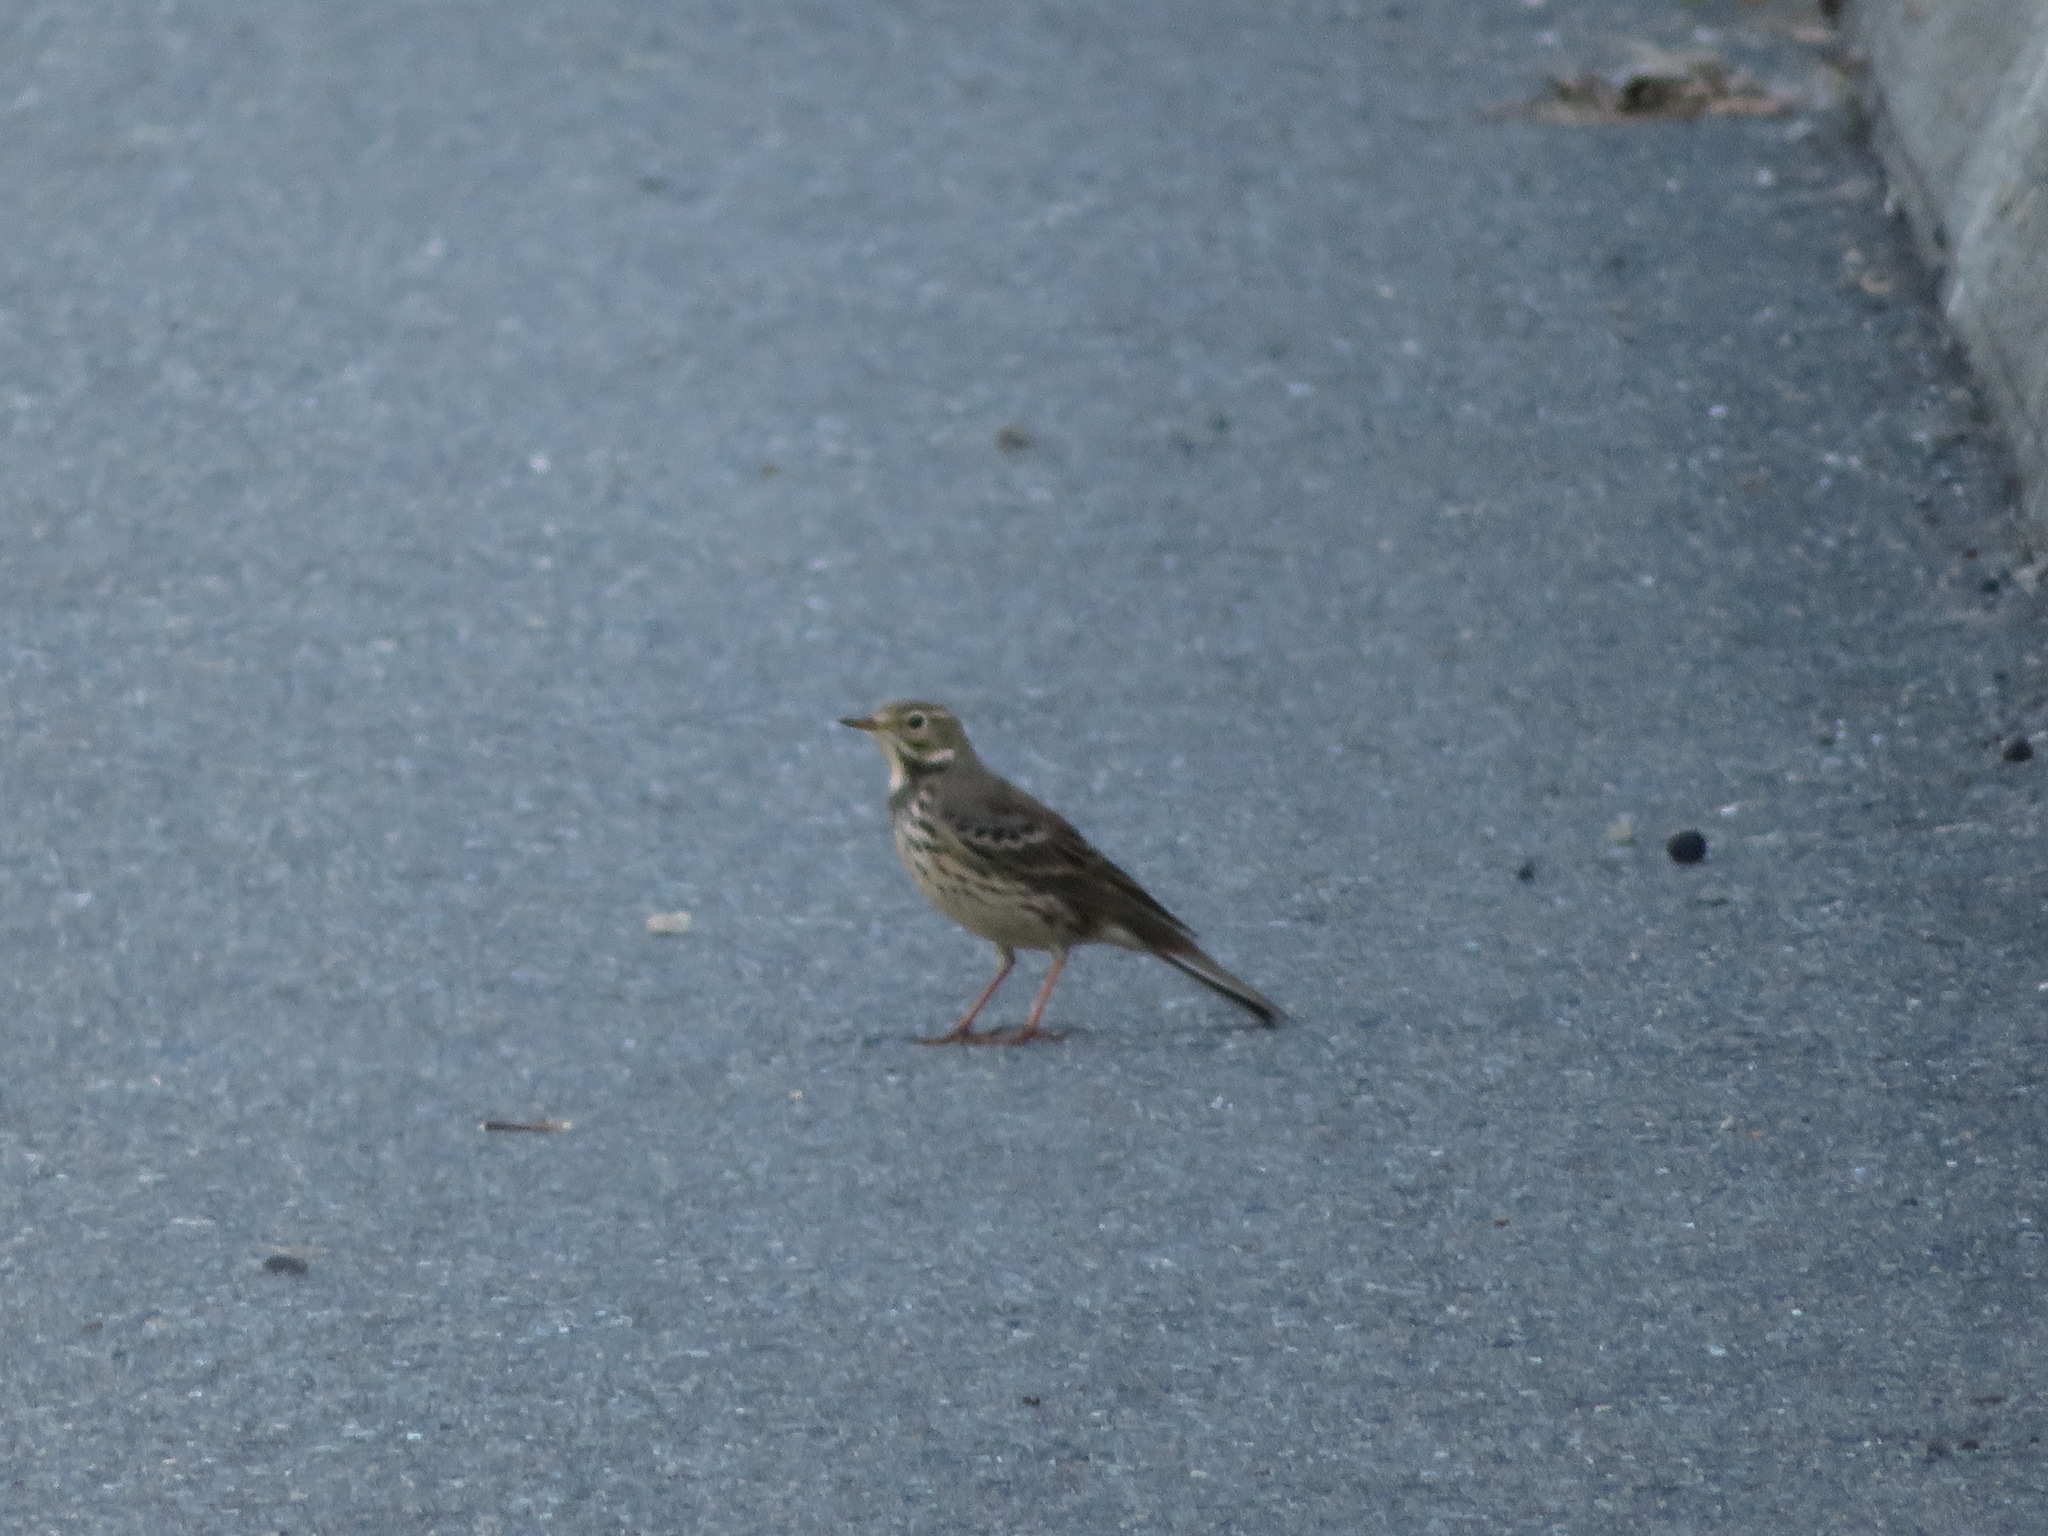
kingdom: Animalia
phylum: Chordata
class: Aves
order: Passeriformes
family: Motacillidae
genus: Anthus
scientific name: Anthus rubescens
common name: Buff-bellied pipit
